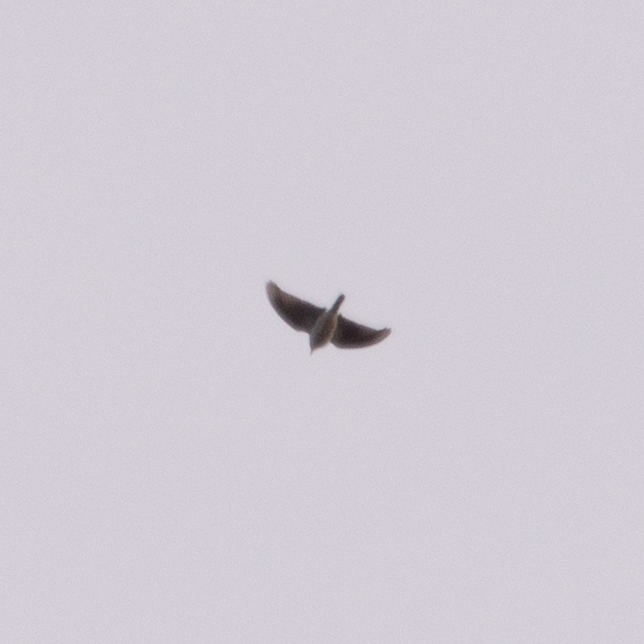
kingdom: Animalia
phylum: Chordata
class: Aves
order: Passeriformes
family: Alaudidae
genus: Alauda
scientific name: Alauda arvensis
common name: Eurasian skylark
